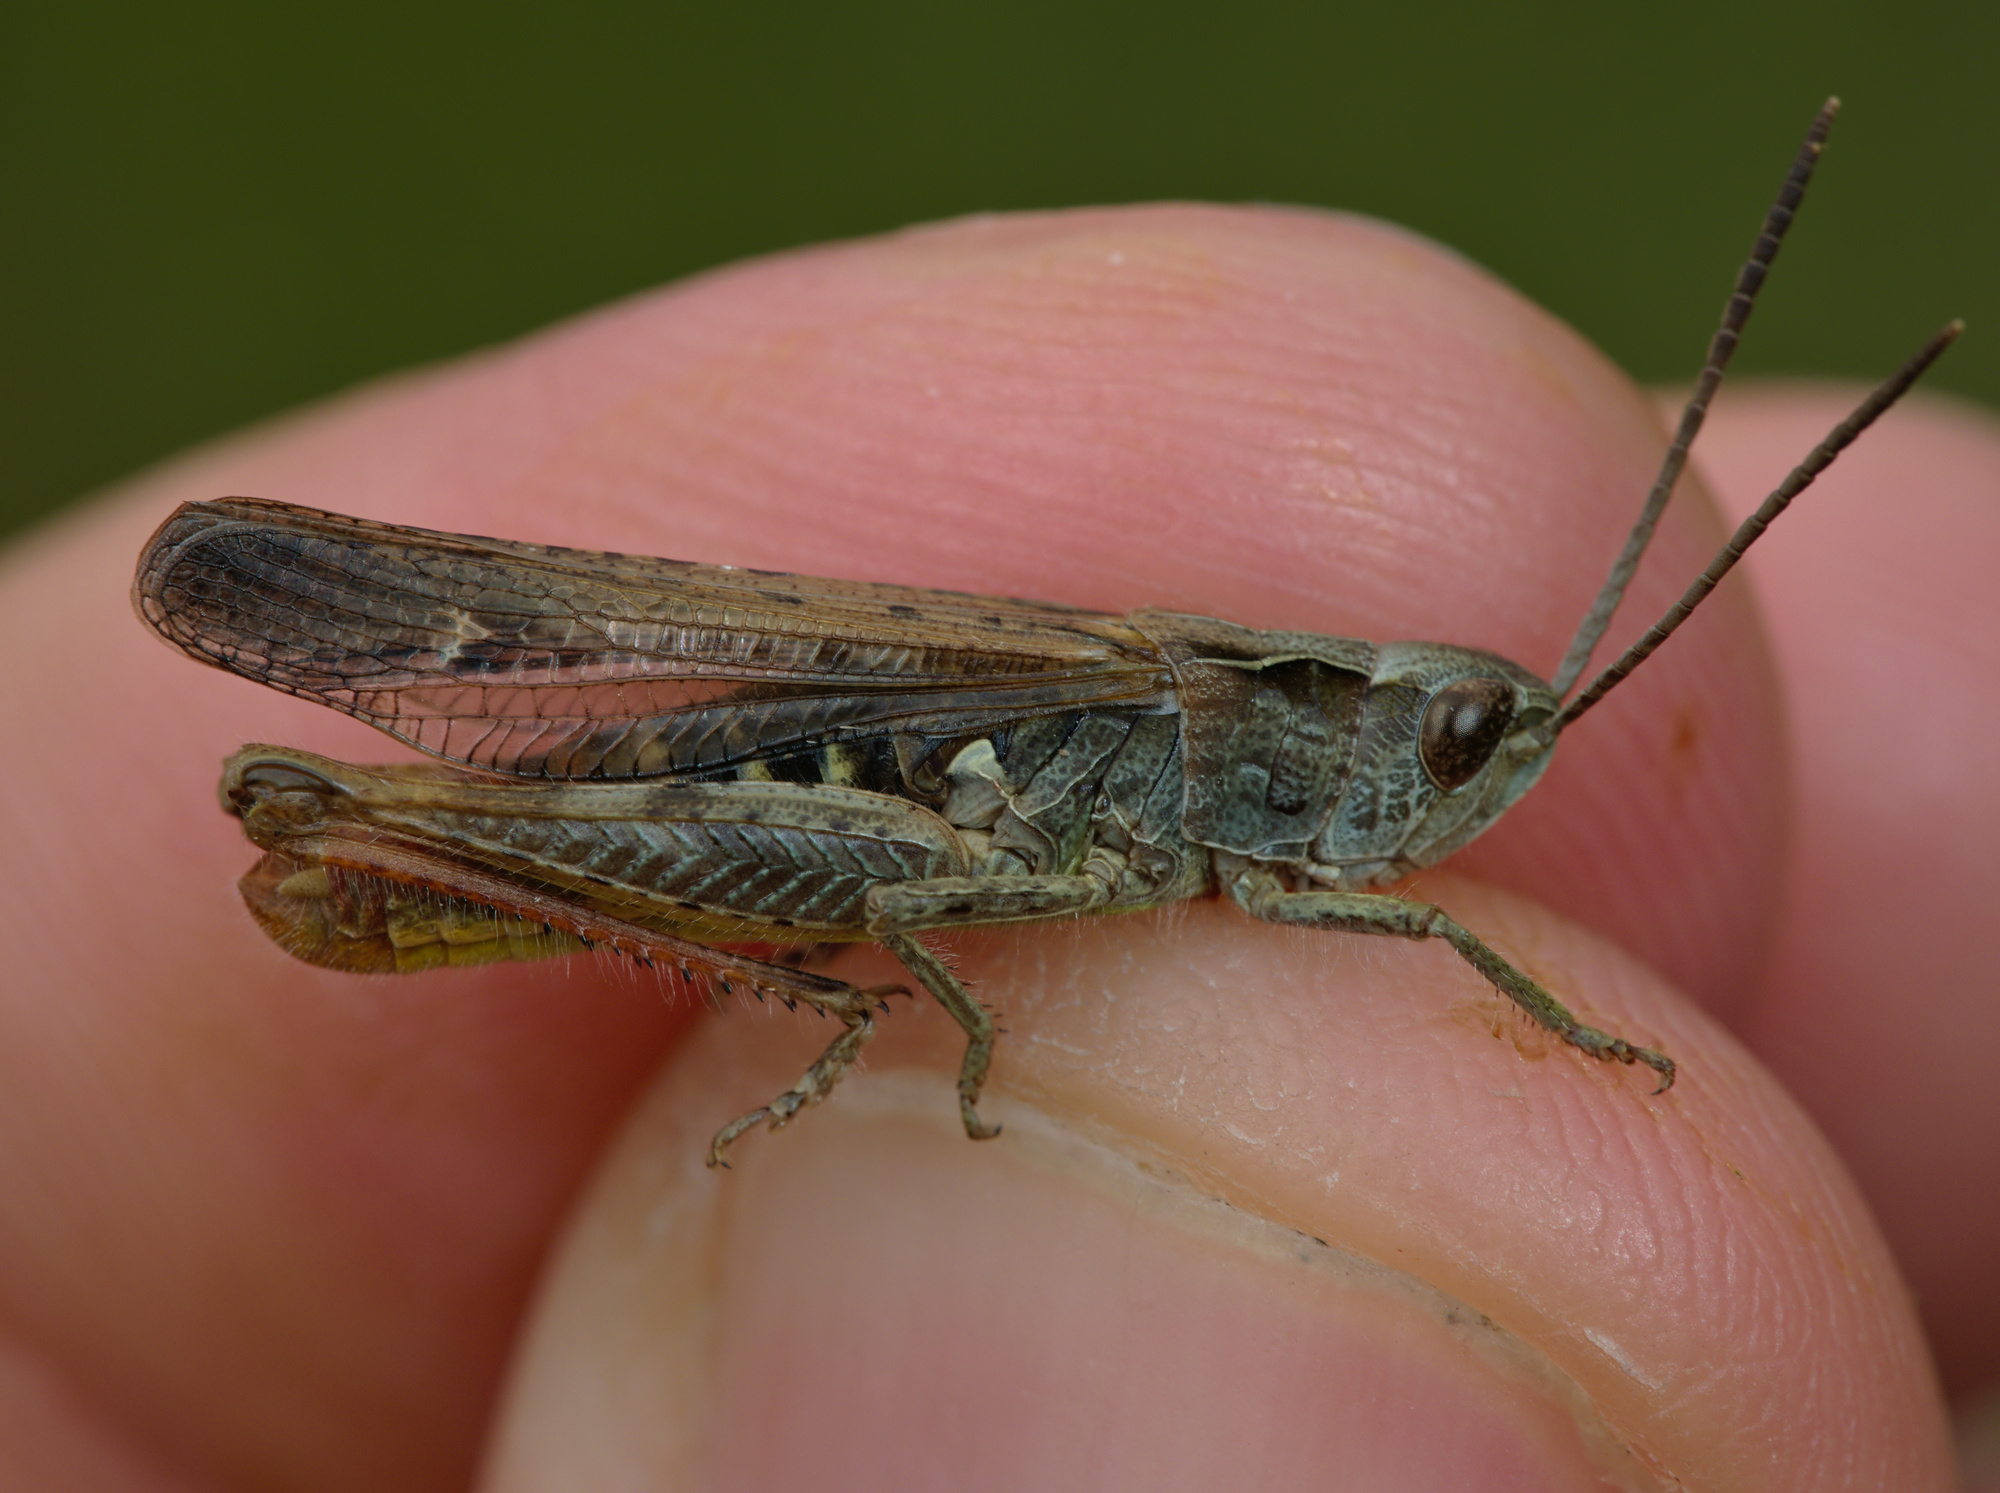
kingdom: Animalia
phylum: Arthropoda
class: Insecta
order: Orthoptera
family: Acrididae
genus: Chorthippus
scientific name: Chorthippus biguttulus
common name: Bow-winged grasshopper
